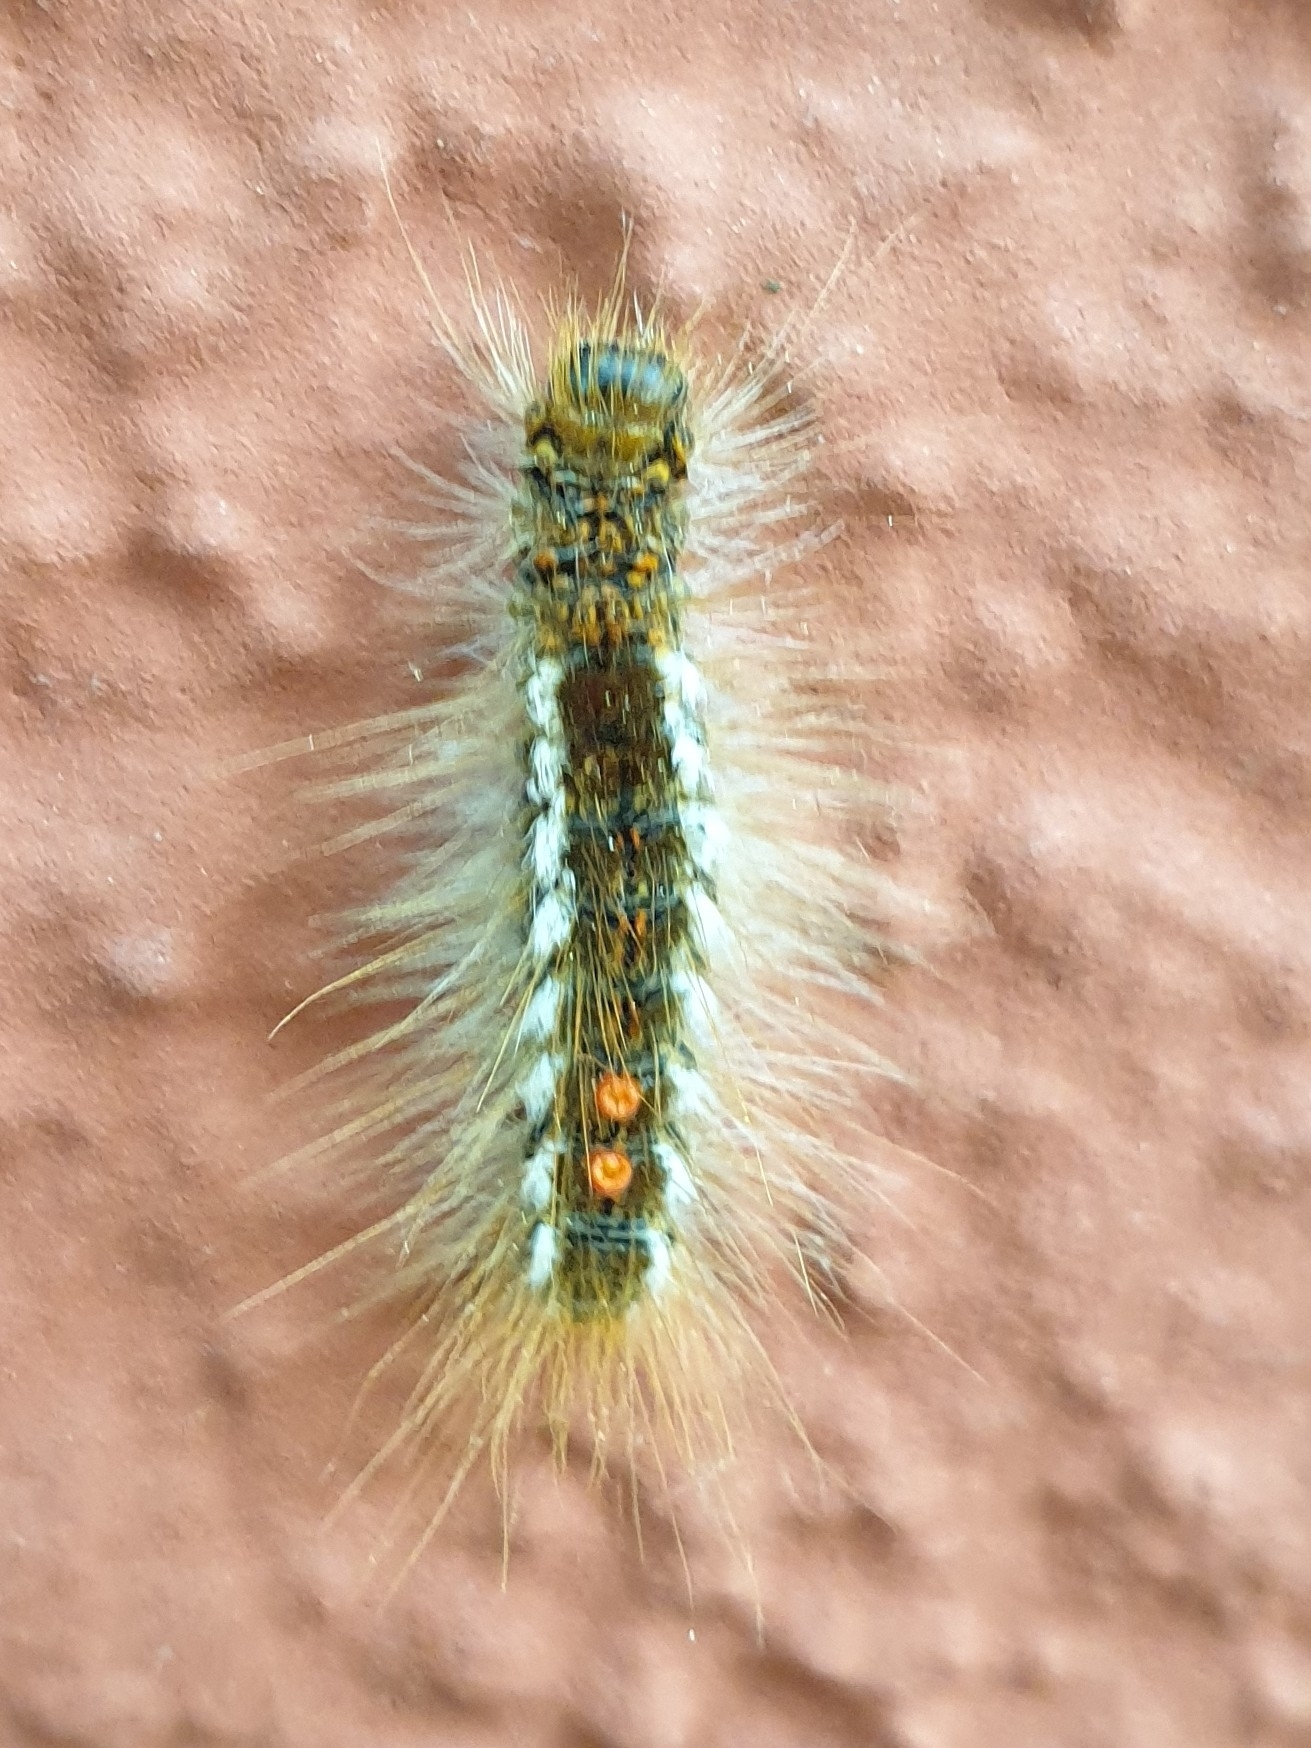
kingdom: Animalia
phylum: Arthropoda
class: Insecta
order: Lepidoptera
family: Erebidae
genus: Euproctis
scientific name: Euproctis chrysorrhoea
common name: Brown-tail
